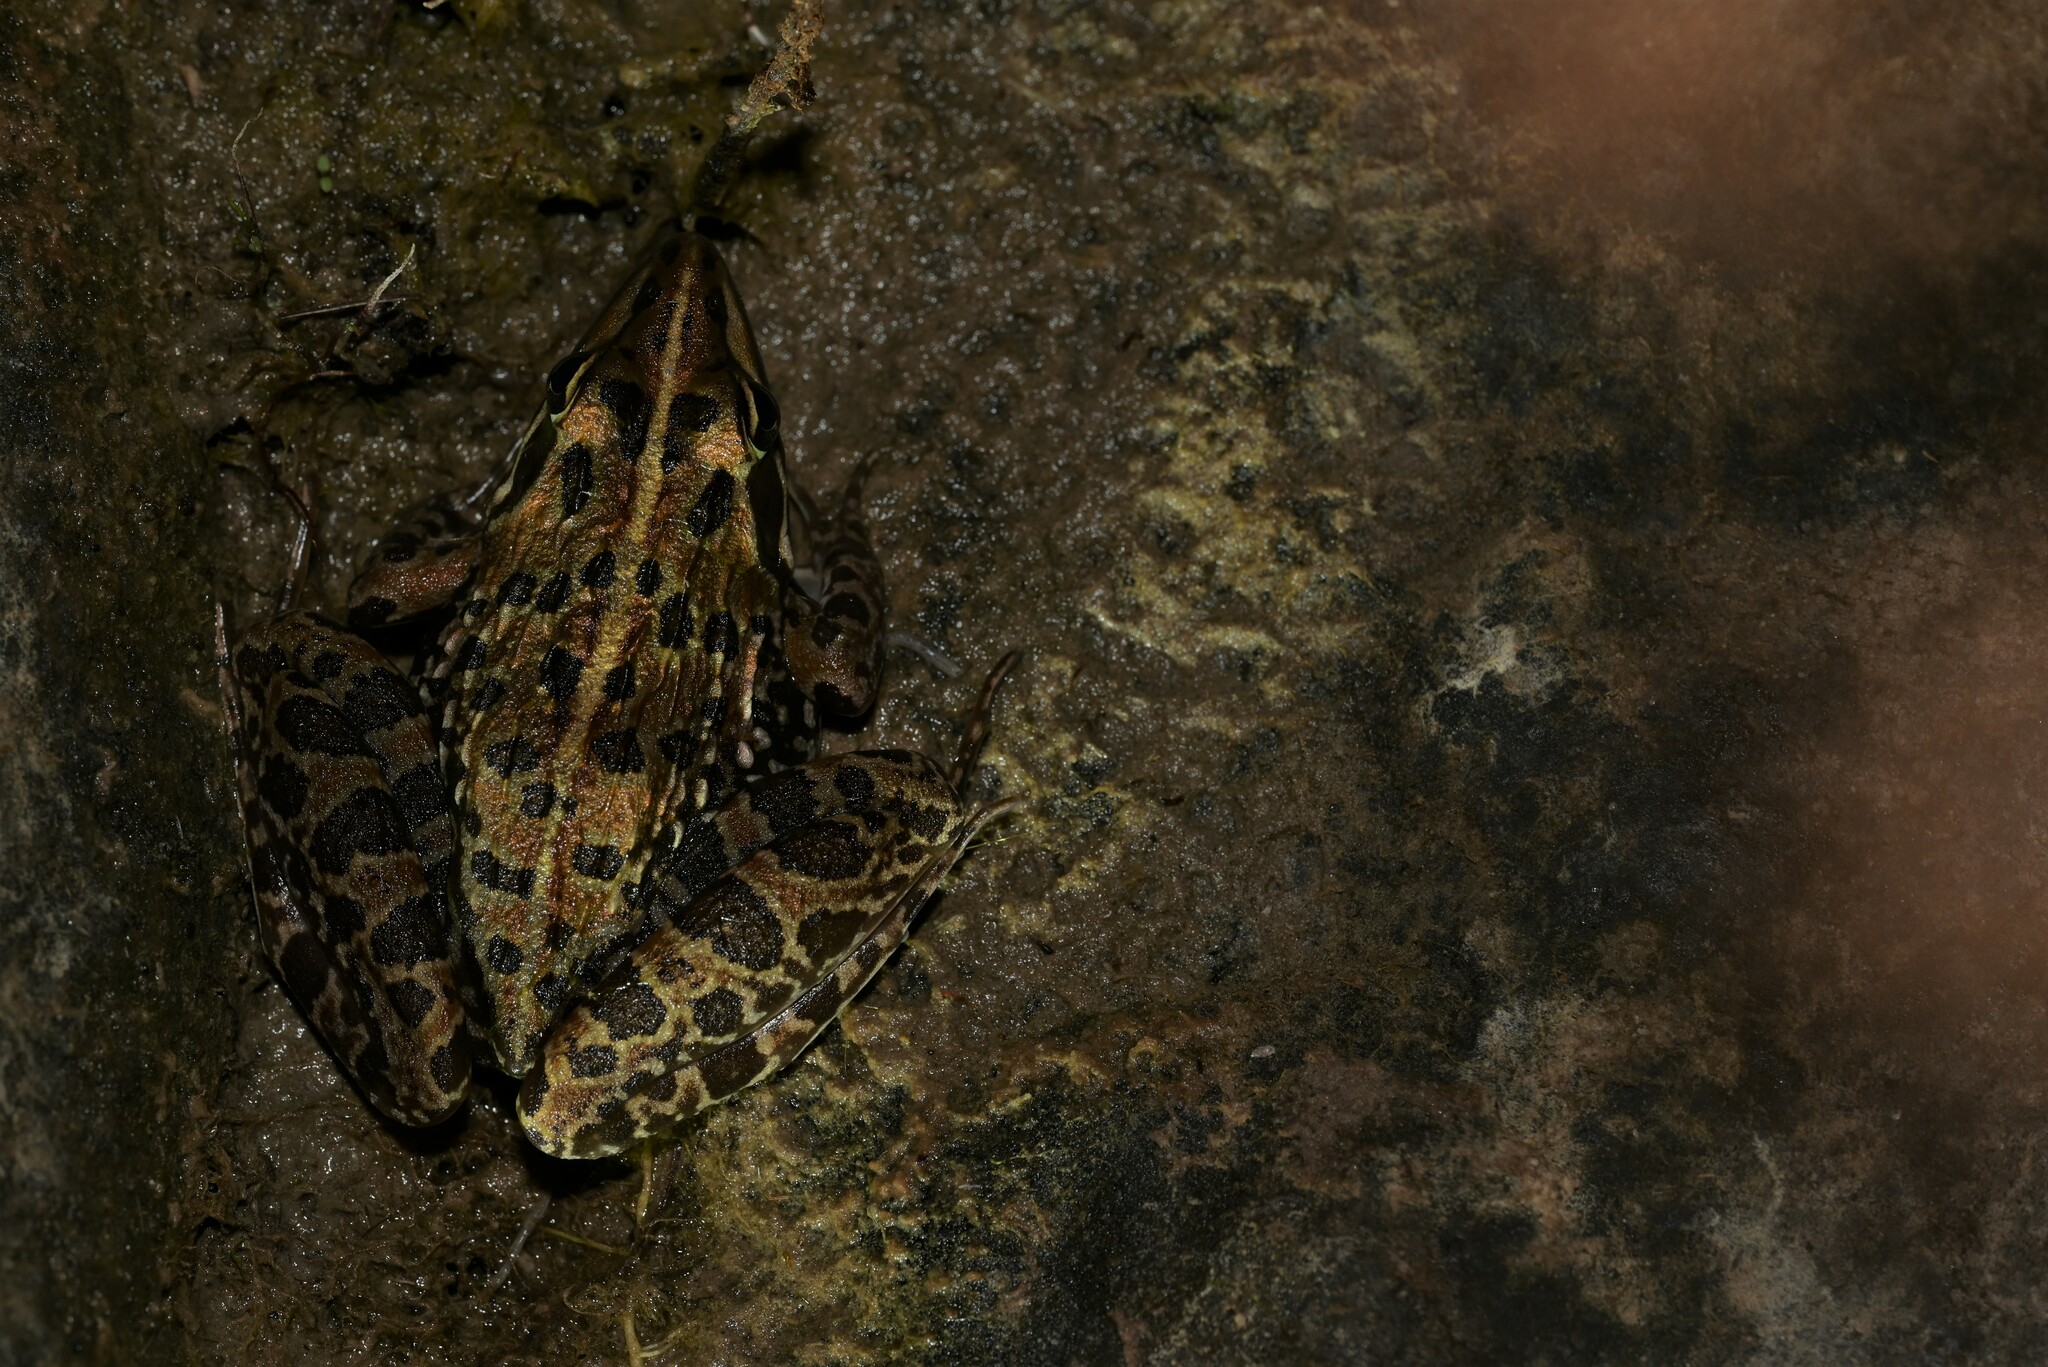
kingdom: Animalia
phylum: Chordata
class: Amphibia
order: Anura
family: Pyxicephalidae
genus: Amietia
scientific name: Amietia delalandii
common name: Delalande's river frog
